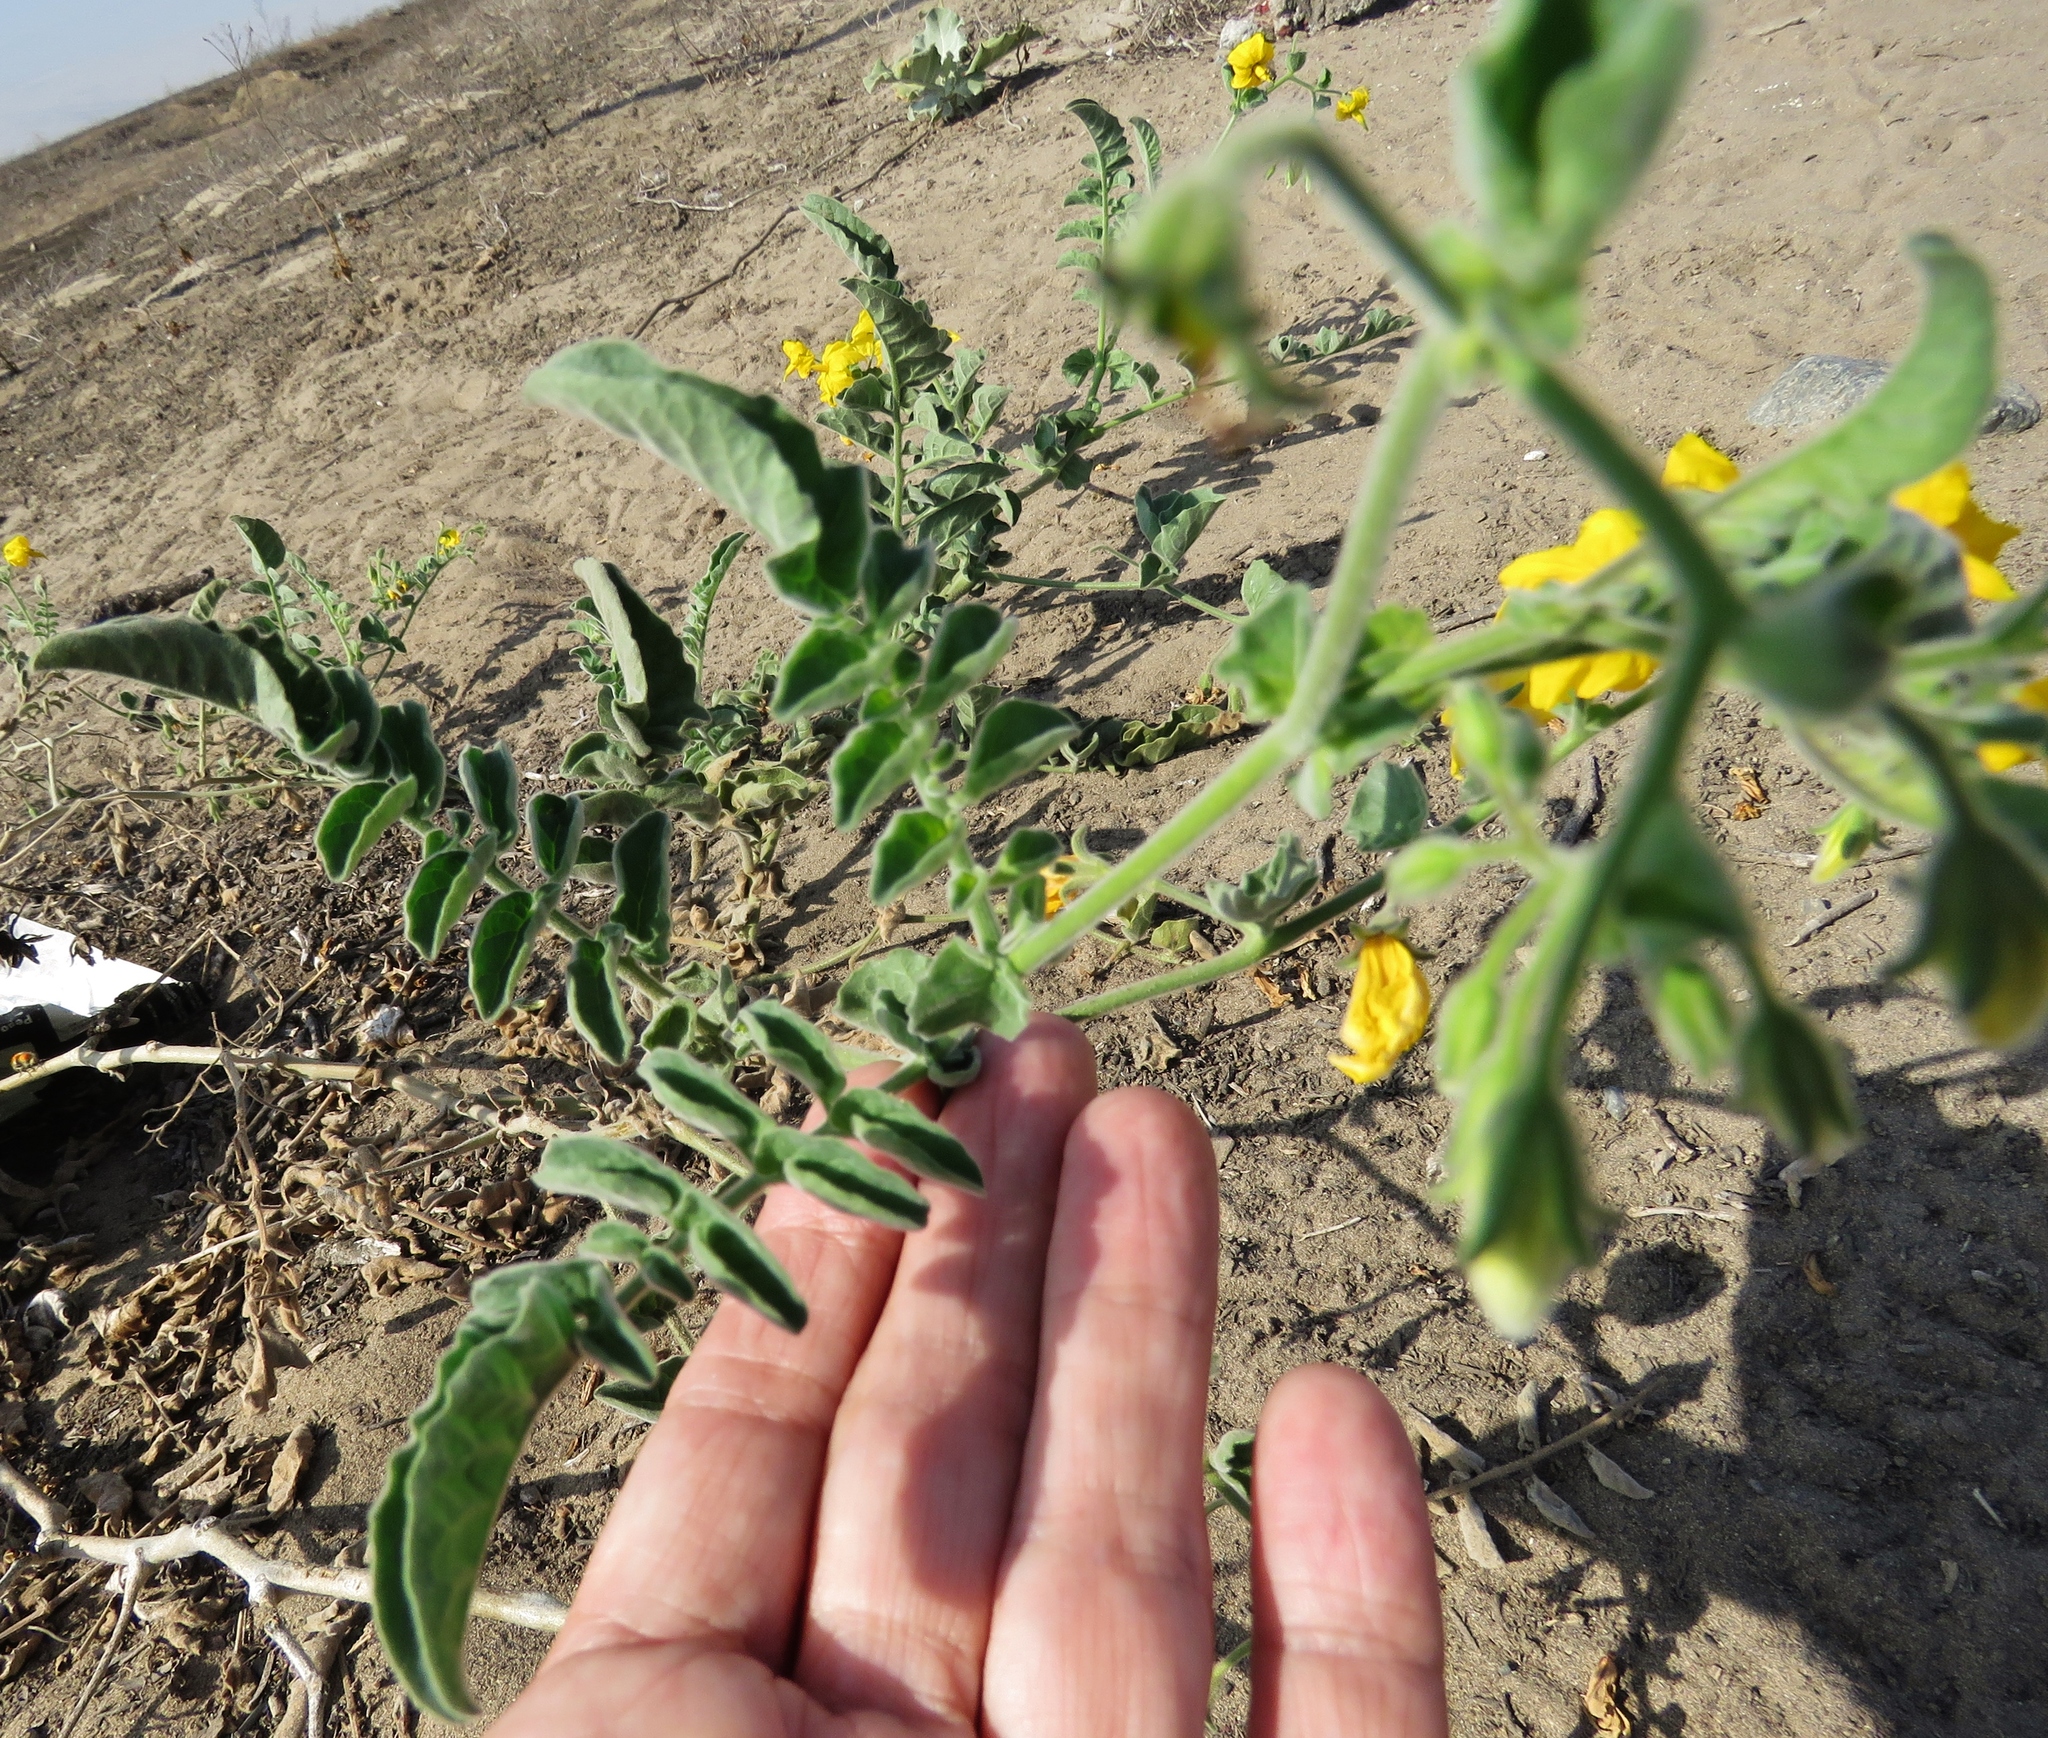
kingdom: Plantae
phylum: Tracheophyta
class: Magnoliopsida
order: Solanales
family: Solanaceae
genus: Solanum
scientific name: Solanum peruvianum
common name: Peruvian nightshade
